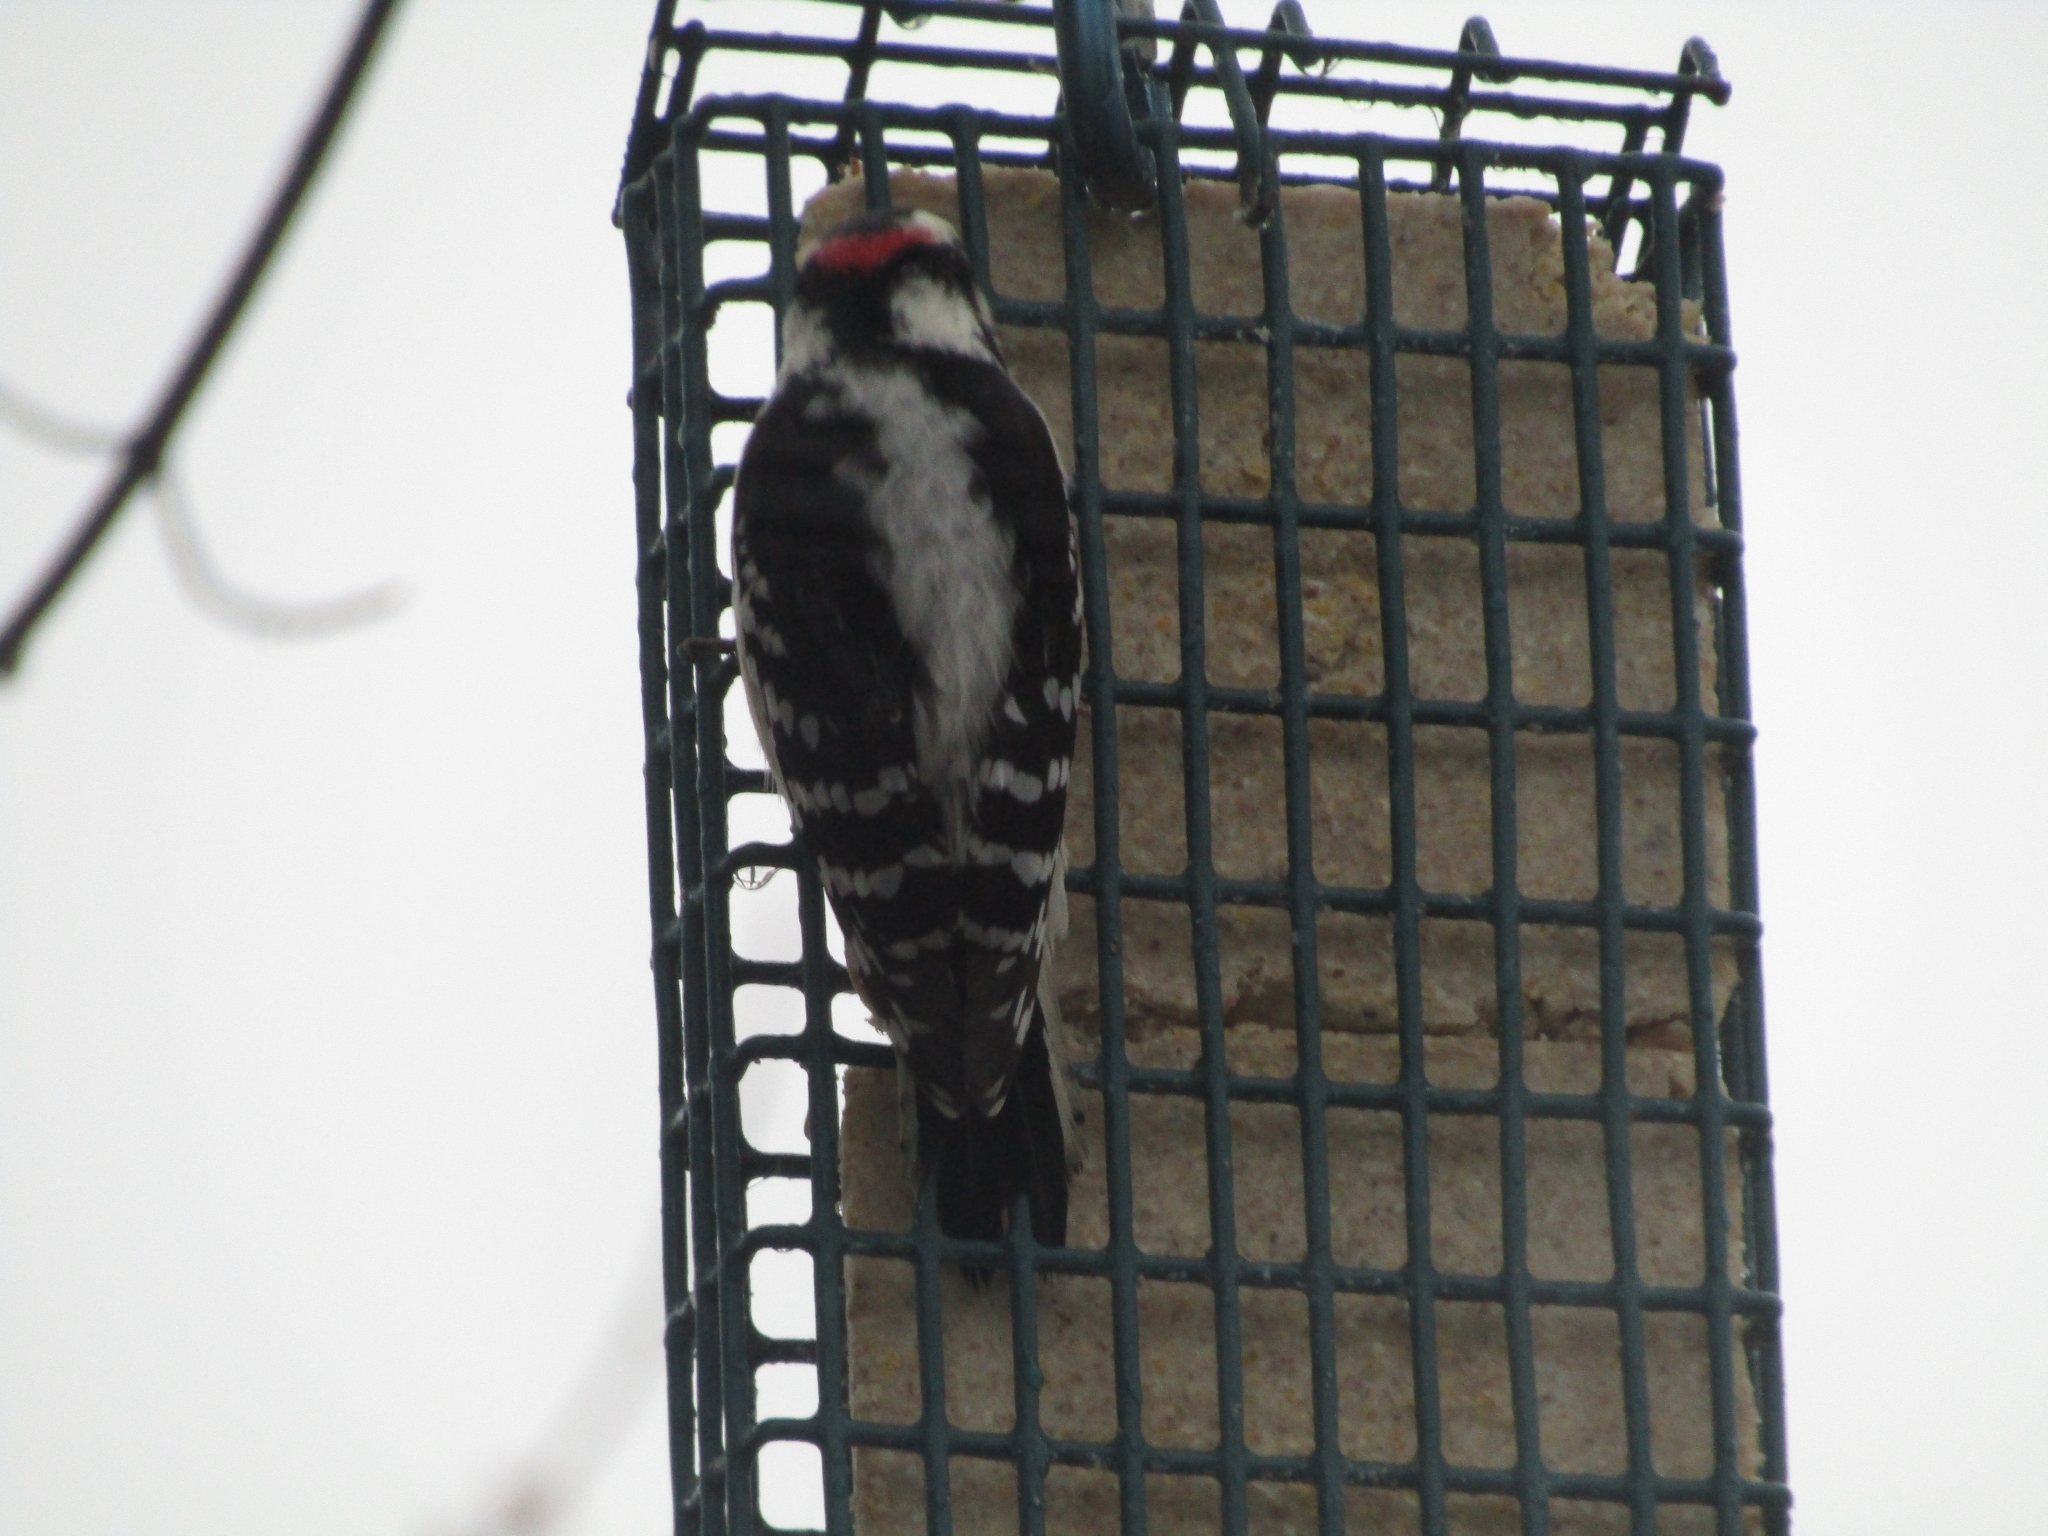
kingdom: Animalia
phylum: Chordata
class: Aves
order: Piciformes
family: Picidae
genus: Dryobates
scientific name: Dryobates pubescens
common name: Downy woodpecker
